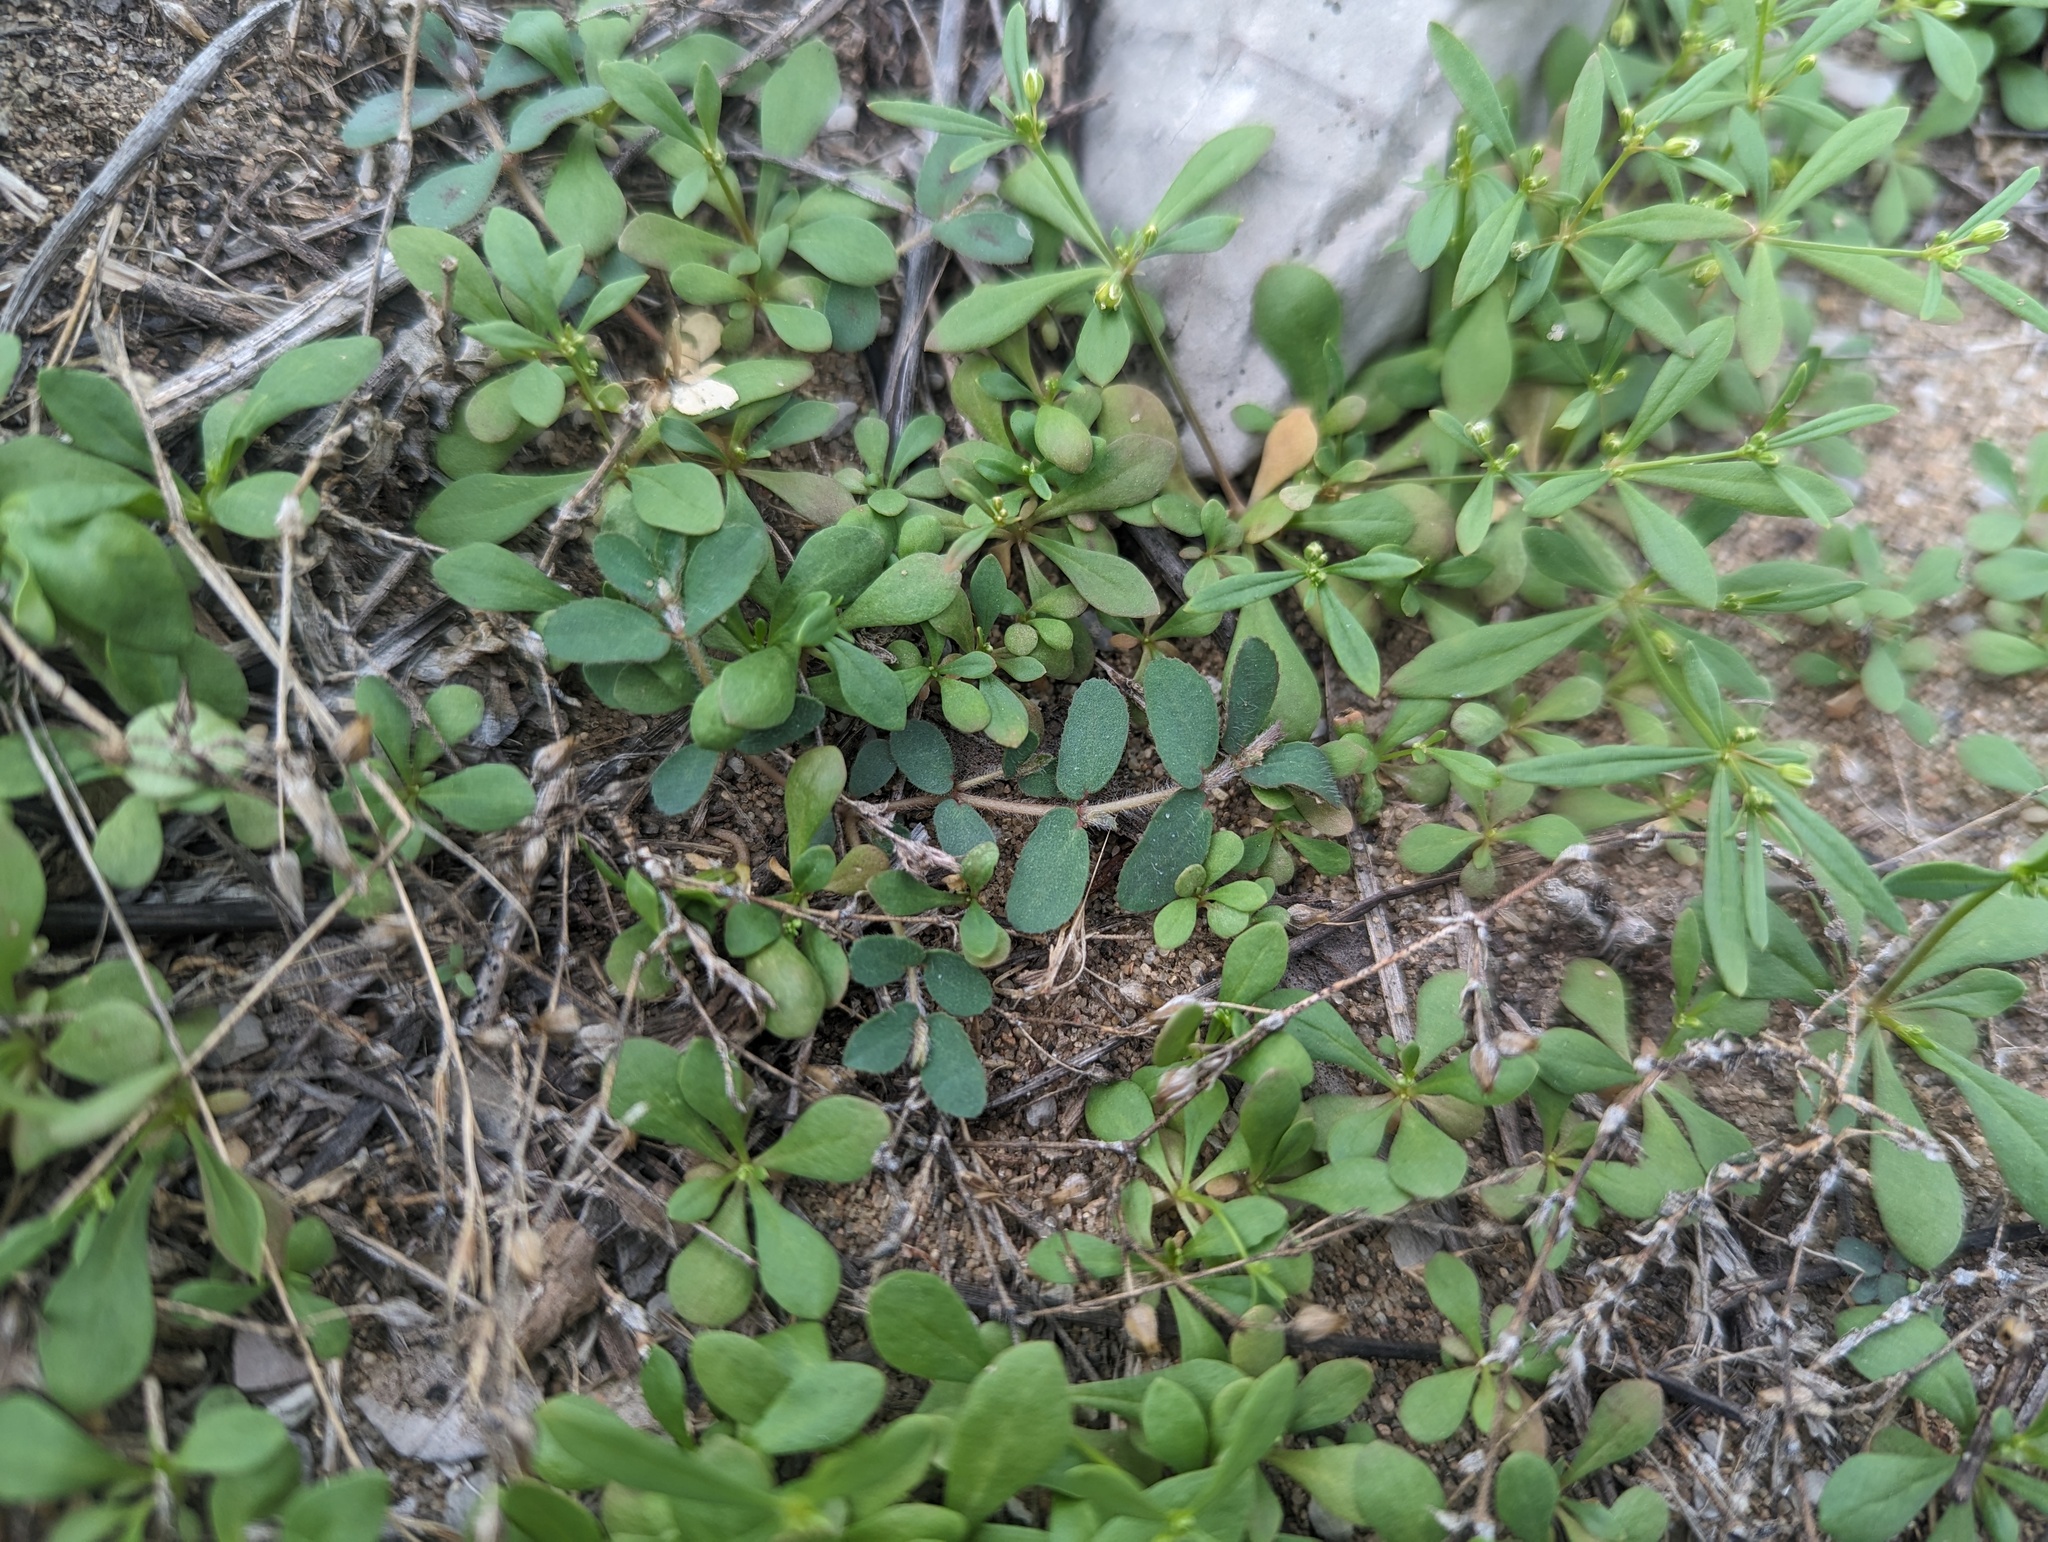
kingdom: Plantae
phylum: Tracheophyta
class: Magnoliopsida
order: Malpighiales
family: Euphorbiaceae
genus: Euphorbia
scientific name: Euphorbia maculata
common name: Spotted spurge
